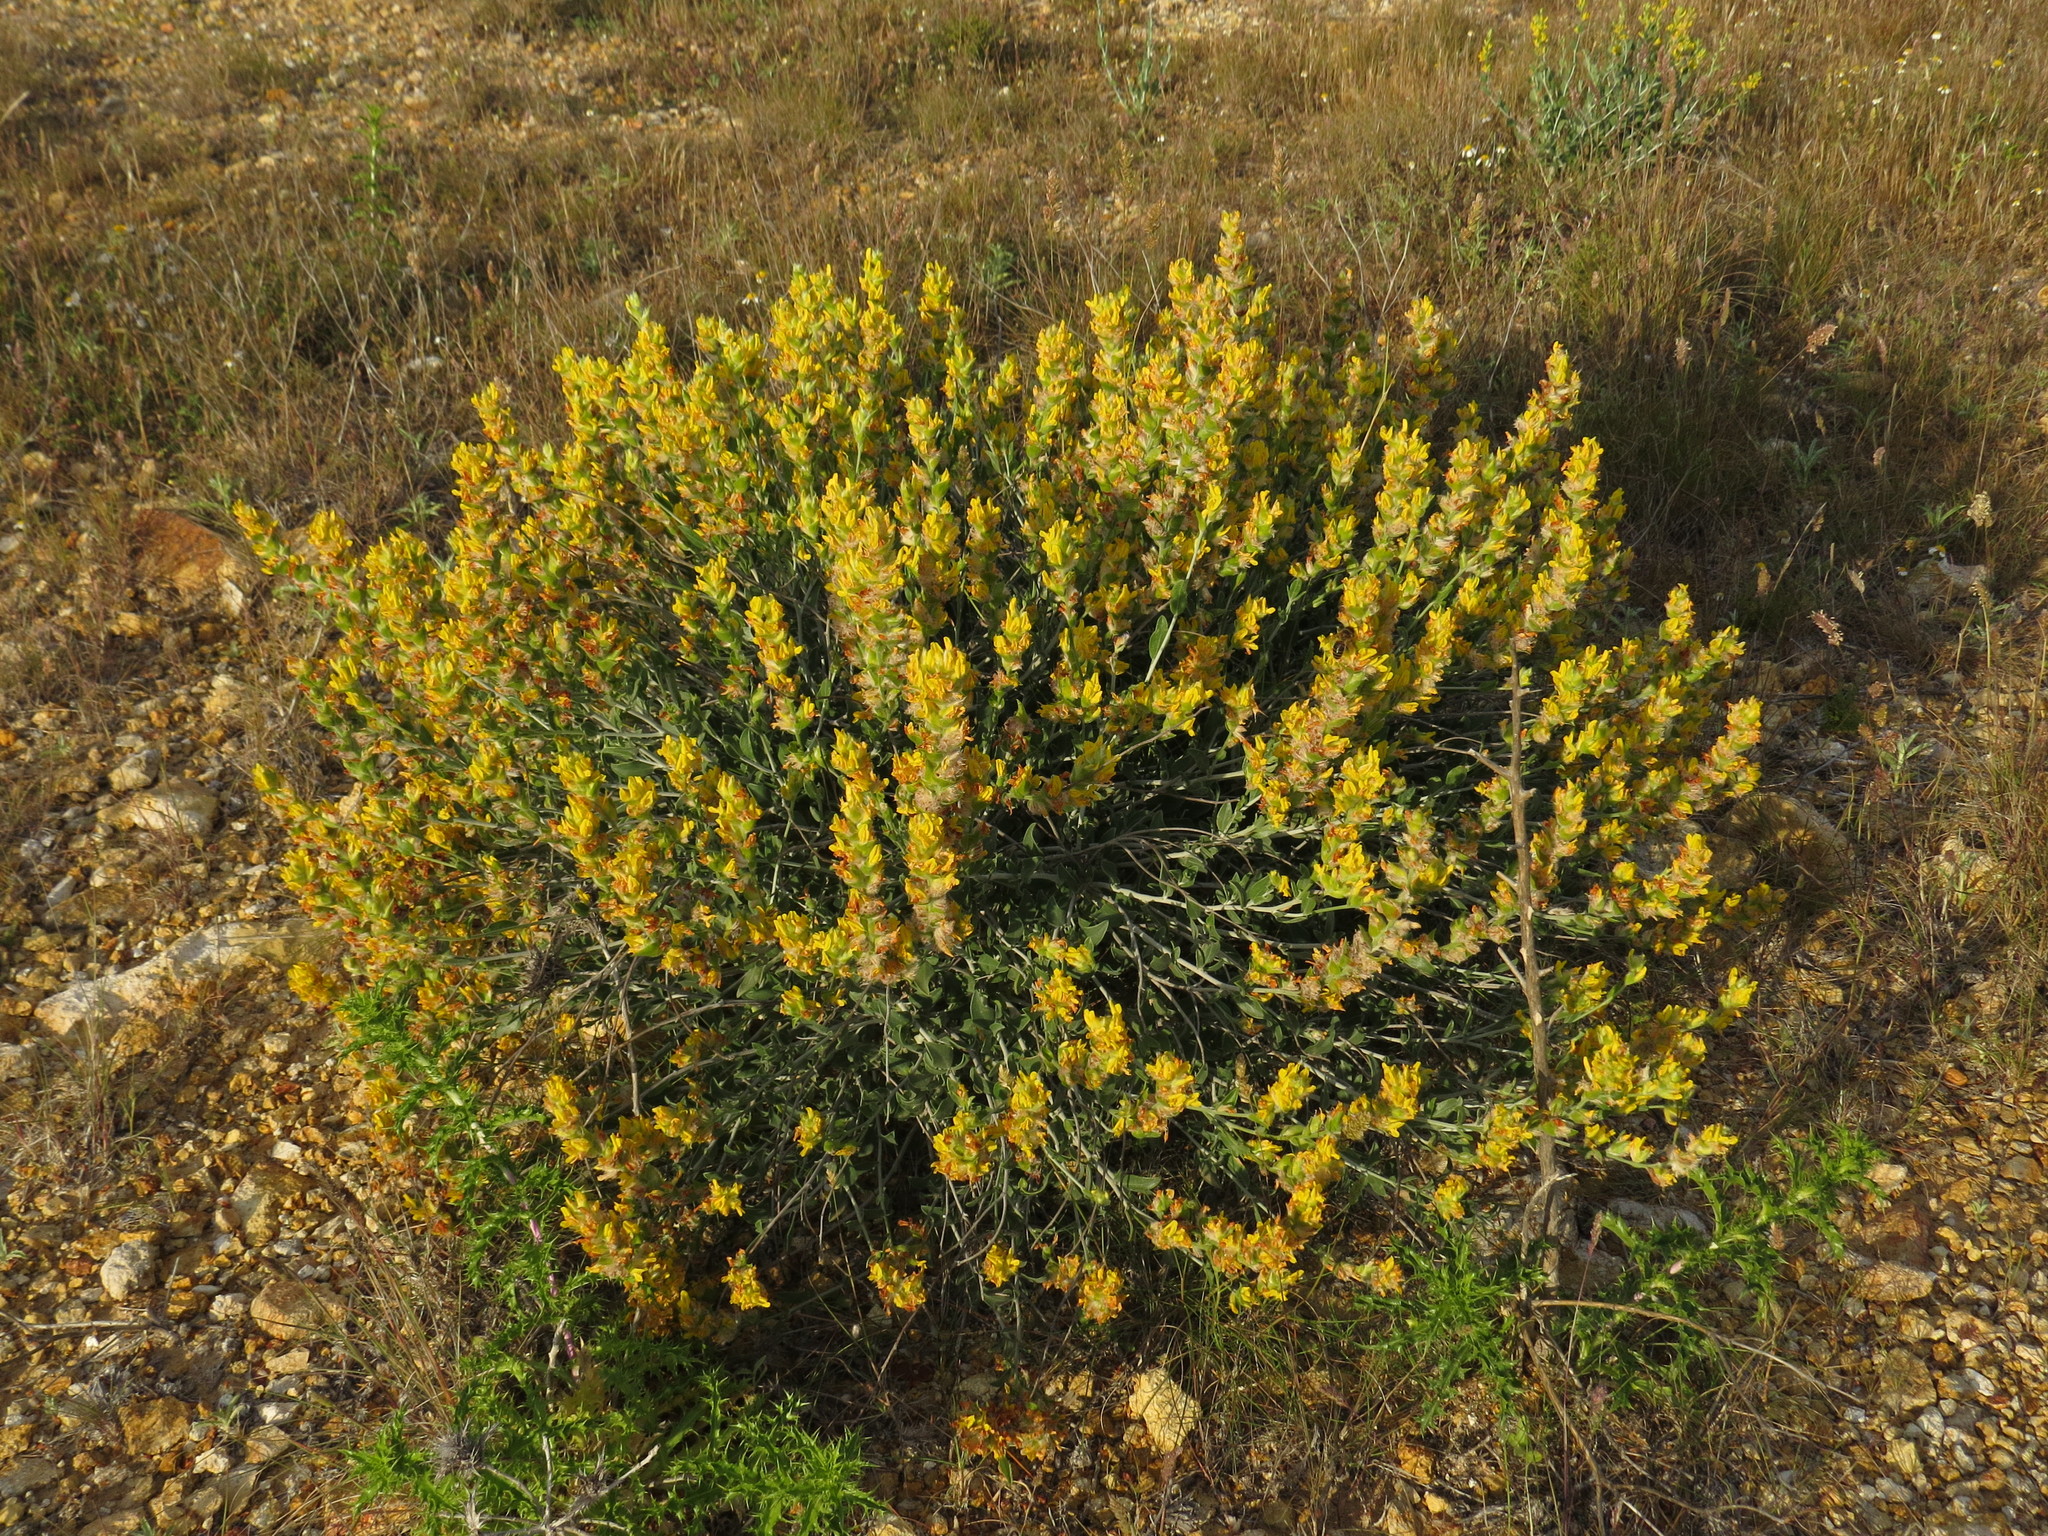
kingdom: Plantae
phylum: Tracheophyta
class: Magnoliopsida
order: Fabales
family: Fabaceae
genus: Anthyllis
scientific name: Anthyllis cytisoides
